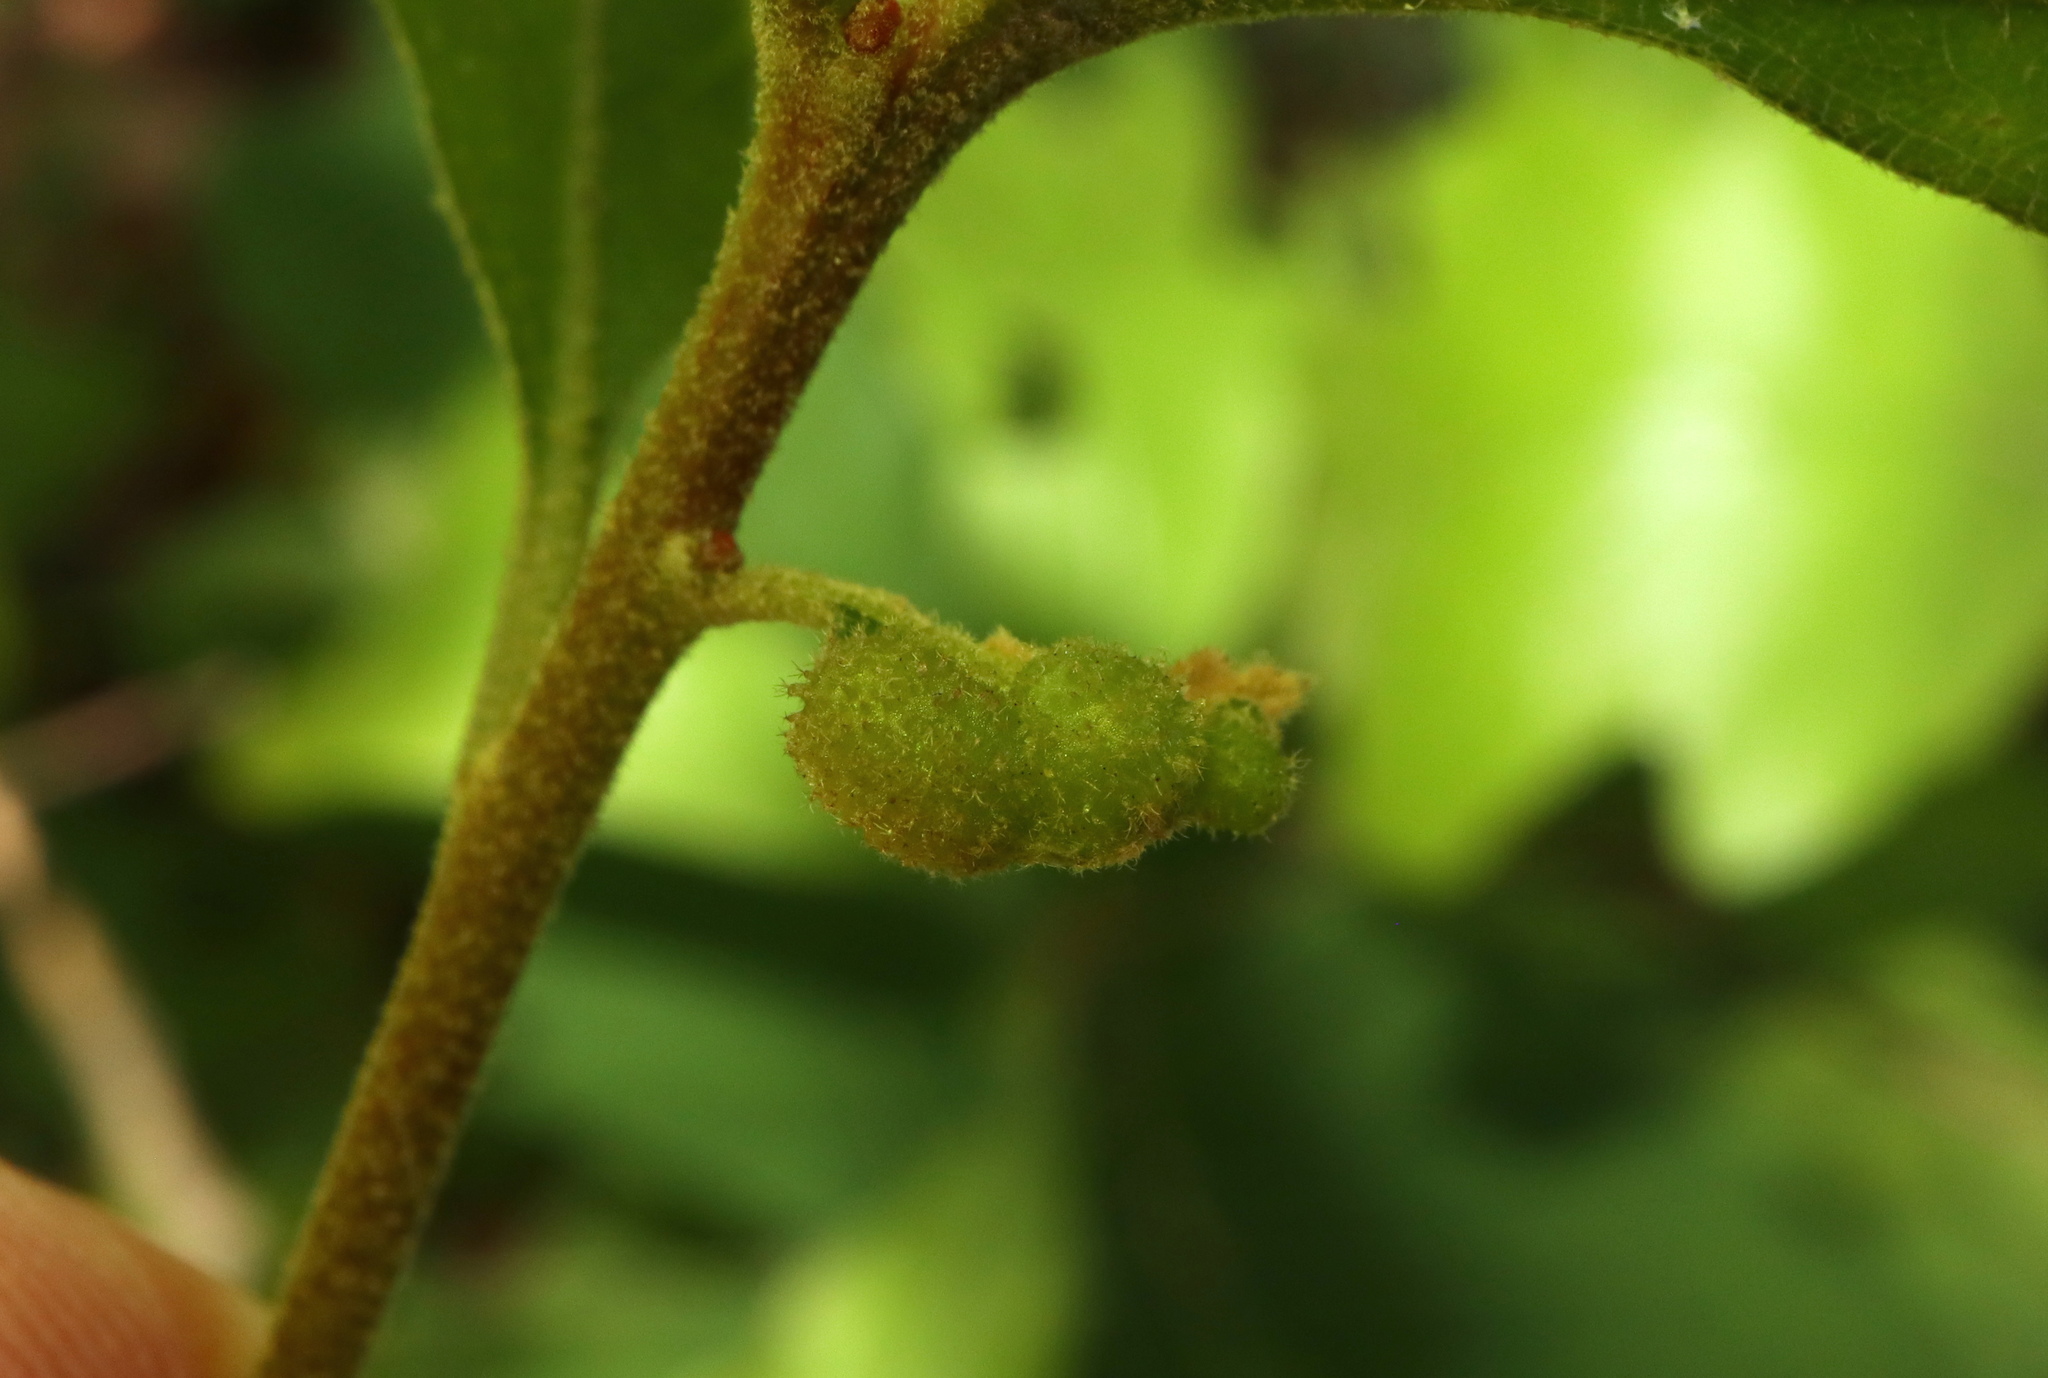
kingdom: Animalia
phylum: Arthropoda
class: Insecta
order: Hymenoptera
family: Cynipidae
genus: Neuroterus
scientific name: Neuroterus quercusirregularis
